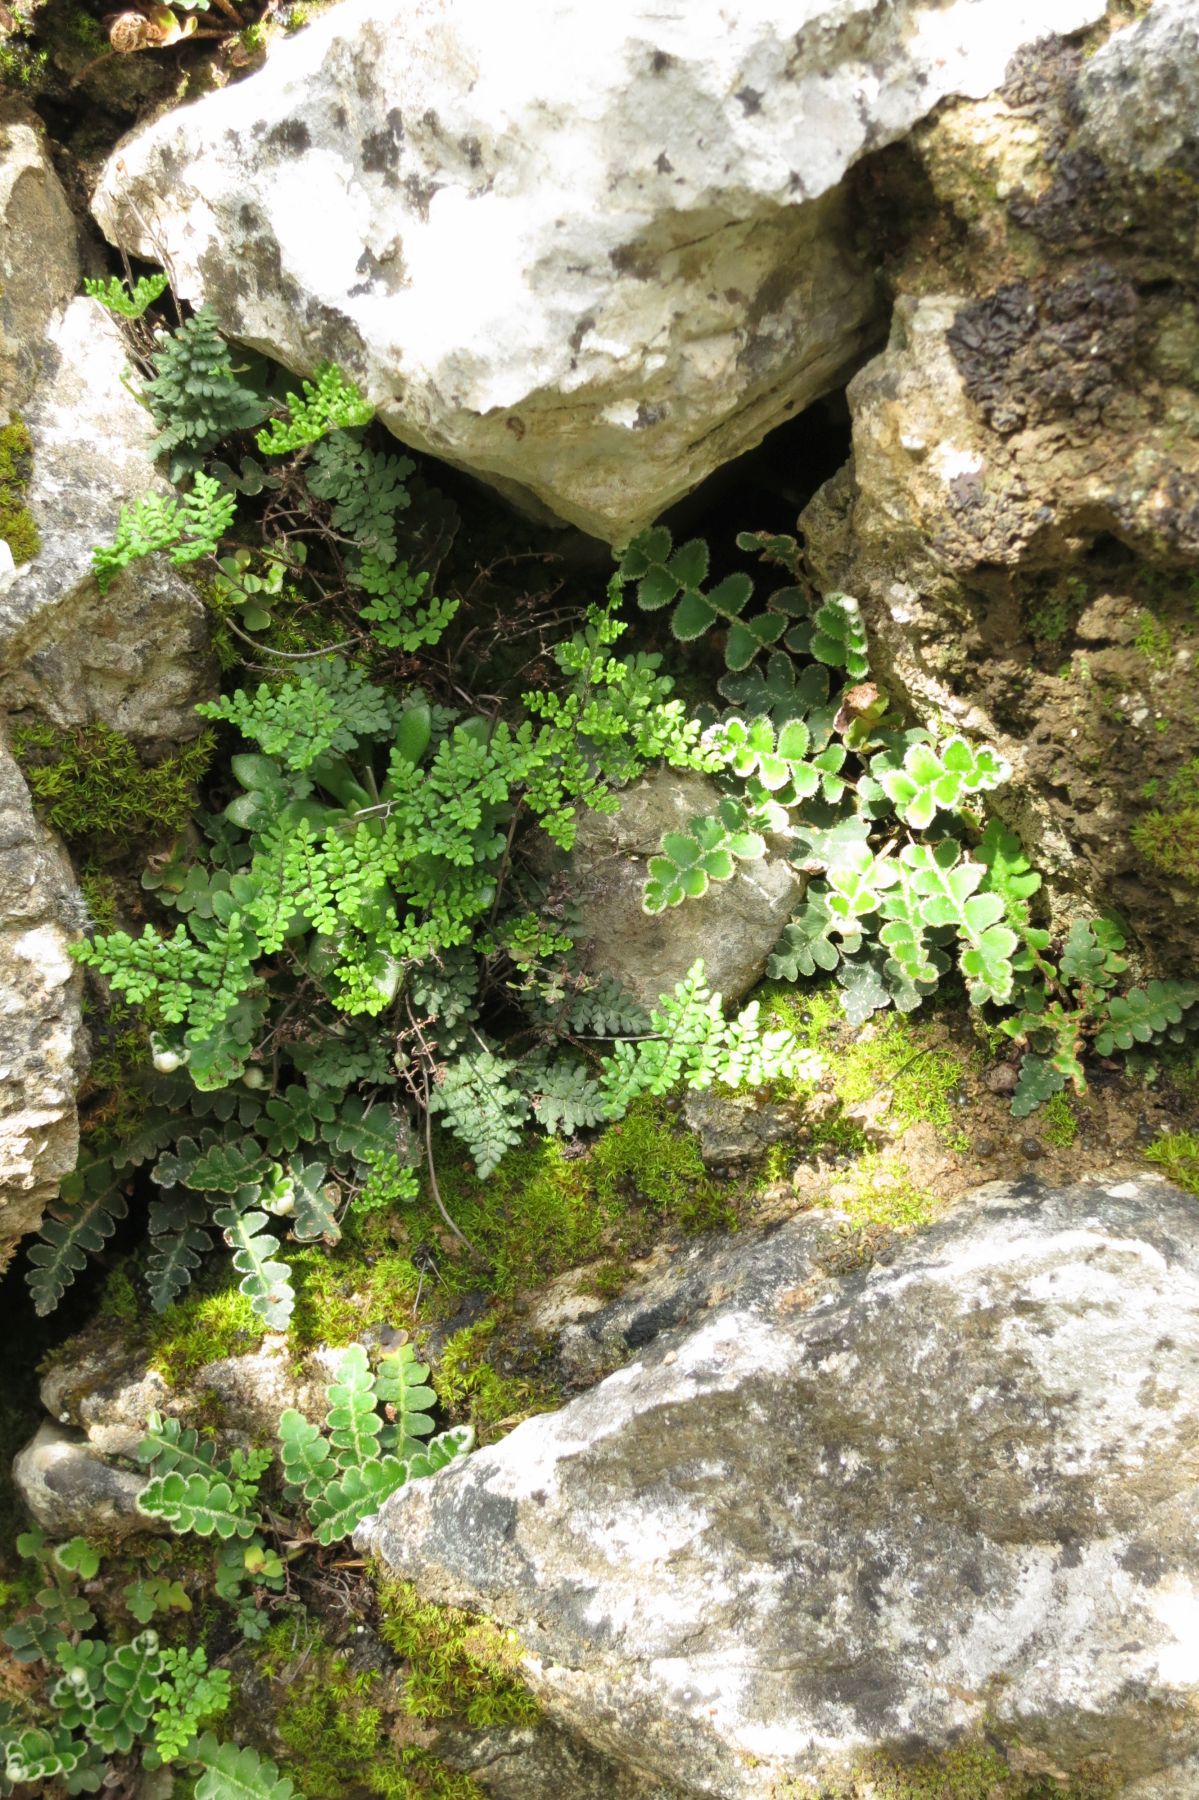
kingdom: Plantae
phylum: Tracheophyta
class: Polypodiopsida
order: Polypodiales
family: Aspleniaceae
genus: Asplenium
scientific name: Asplenium ceterach
